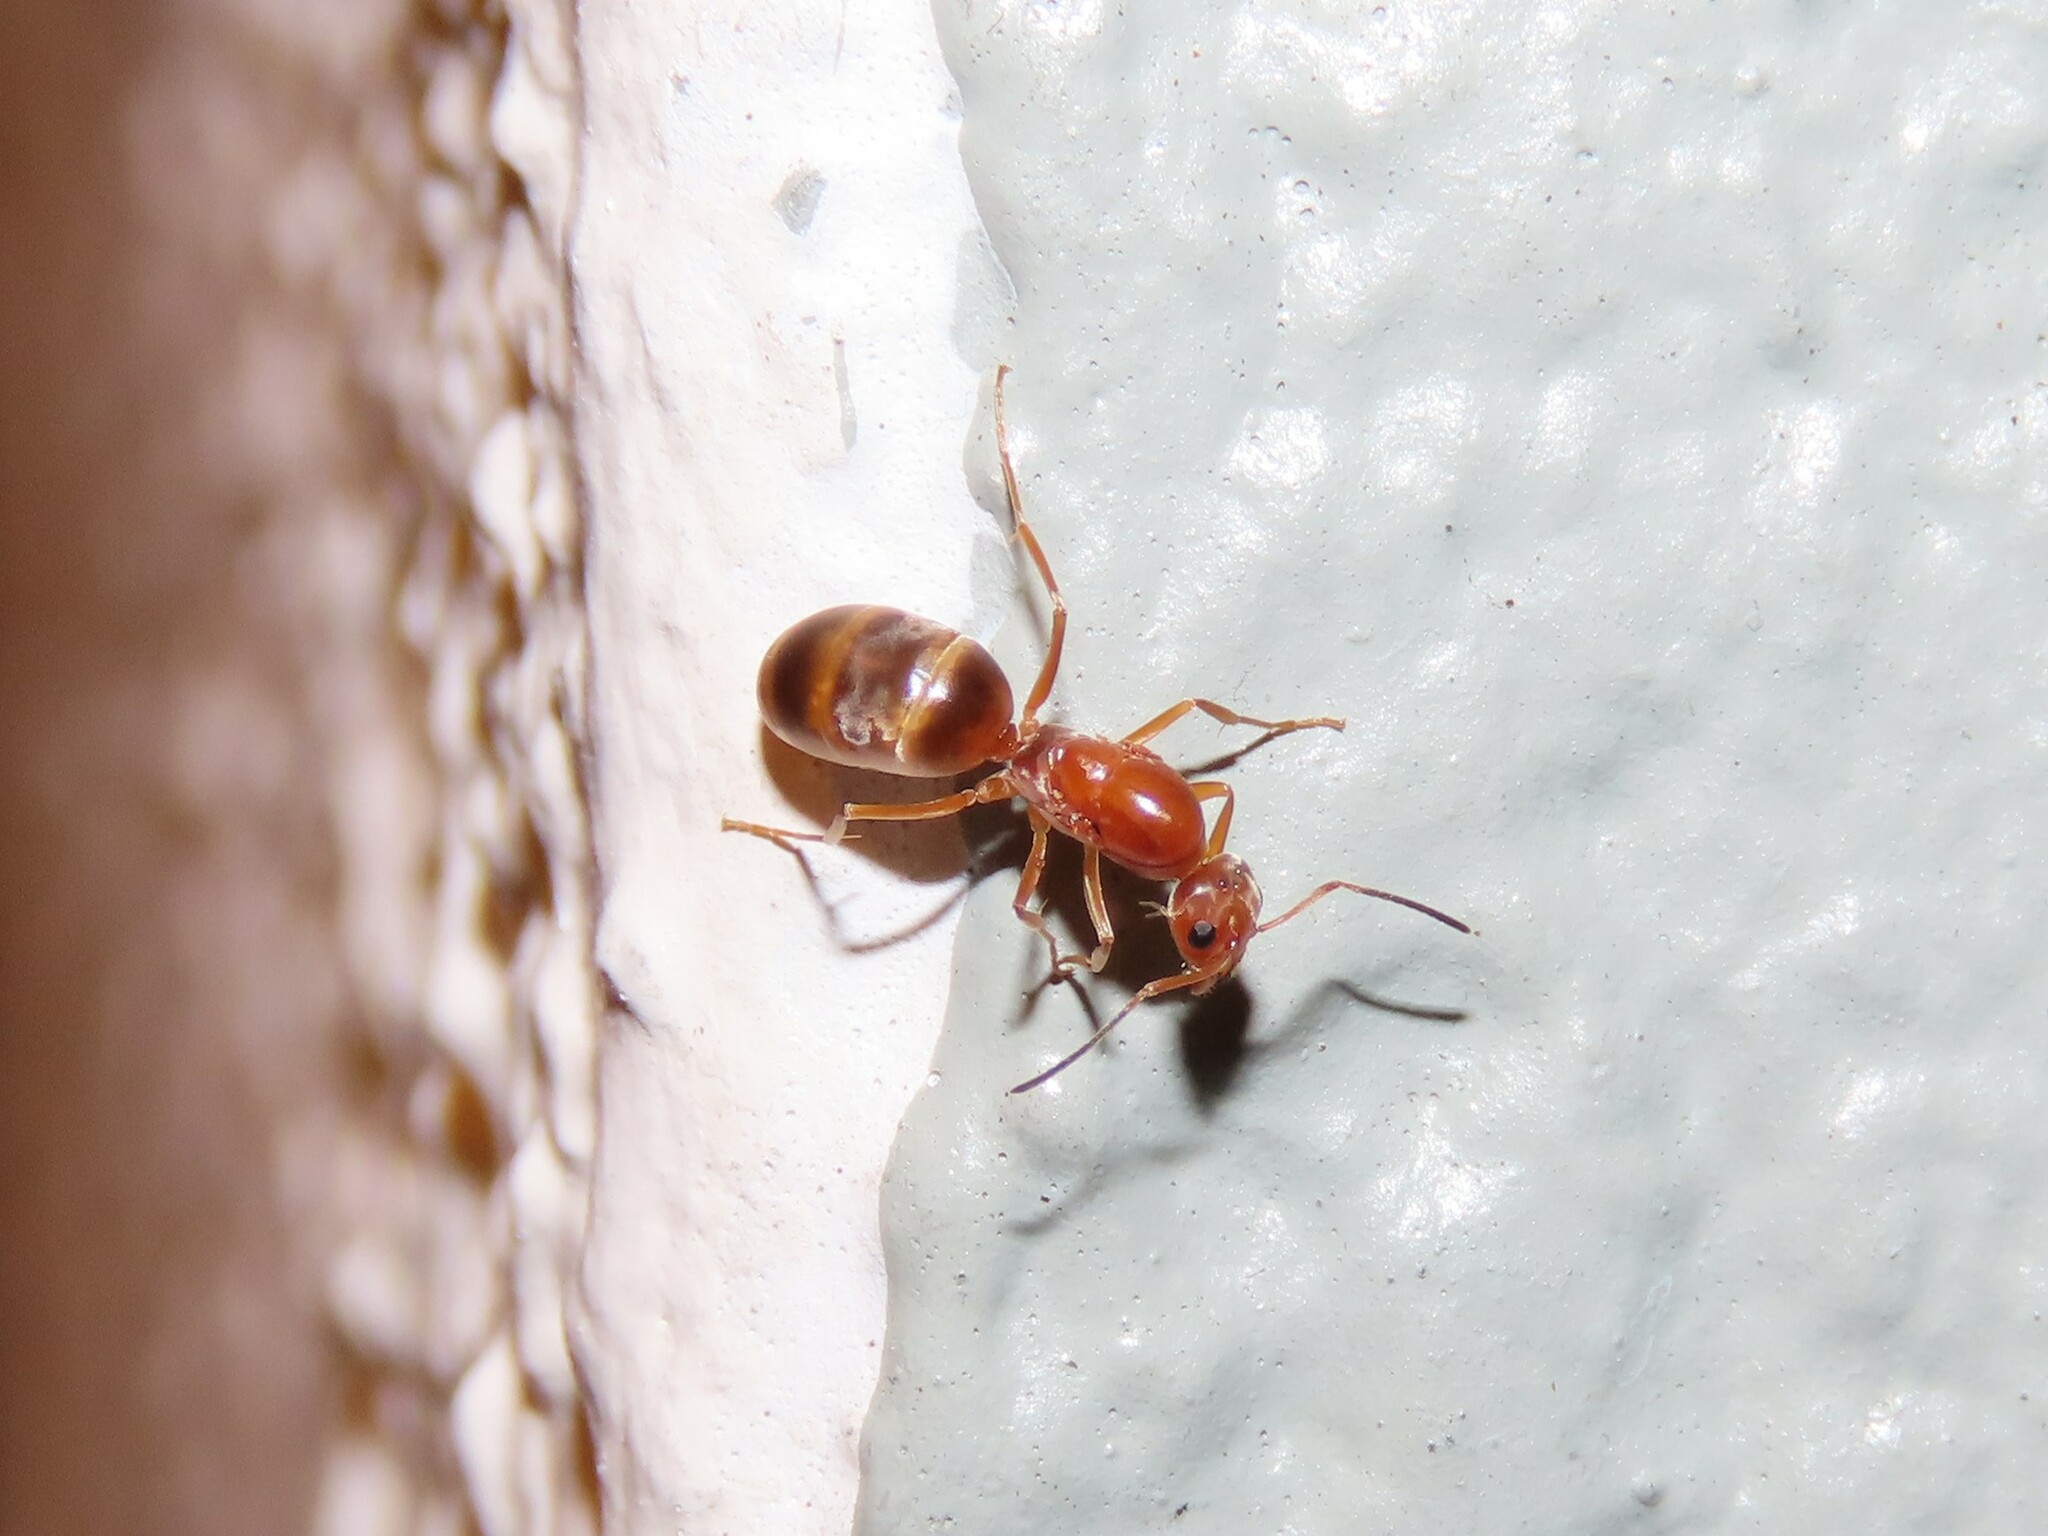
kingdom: Animalia
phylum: Arthropoda
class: Insecta
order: Hymenoptera
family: Formicidae
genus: Dorymyrmex
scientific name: Dorymyrmex bureni
